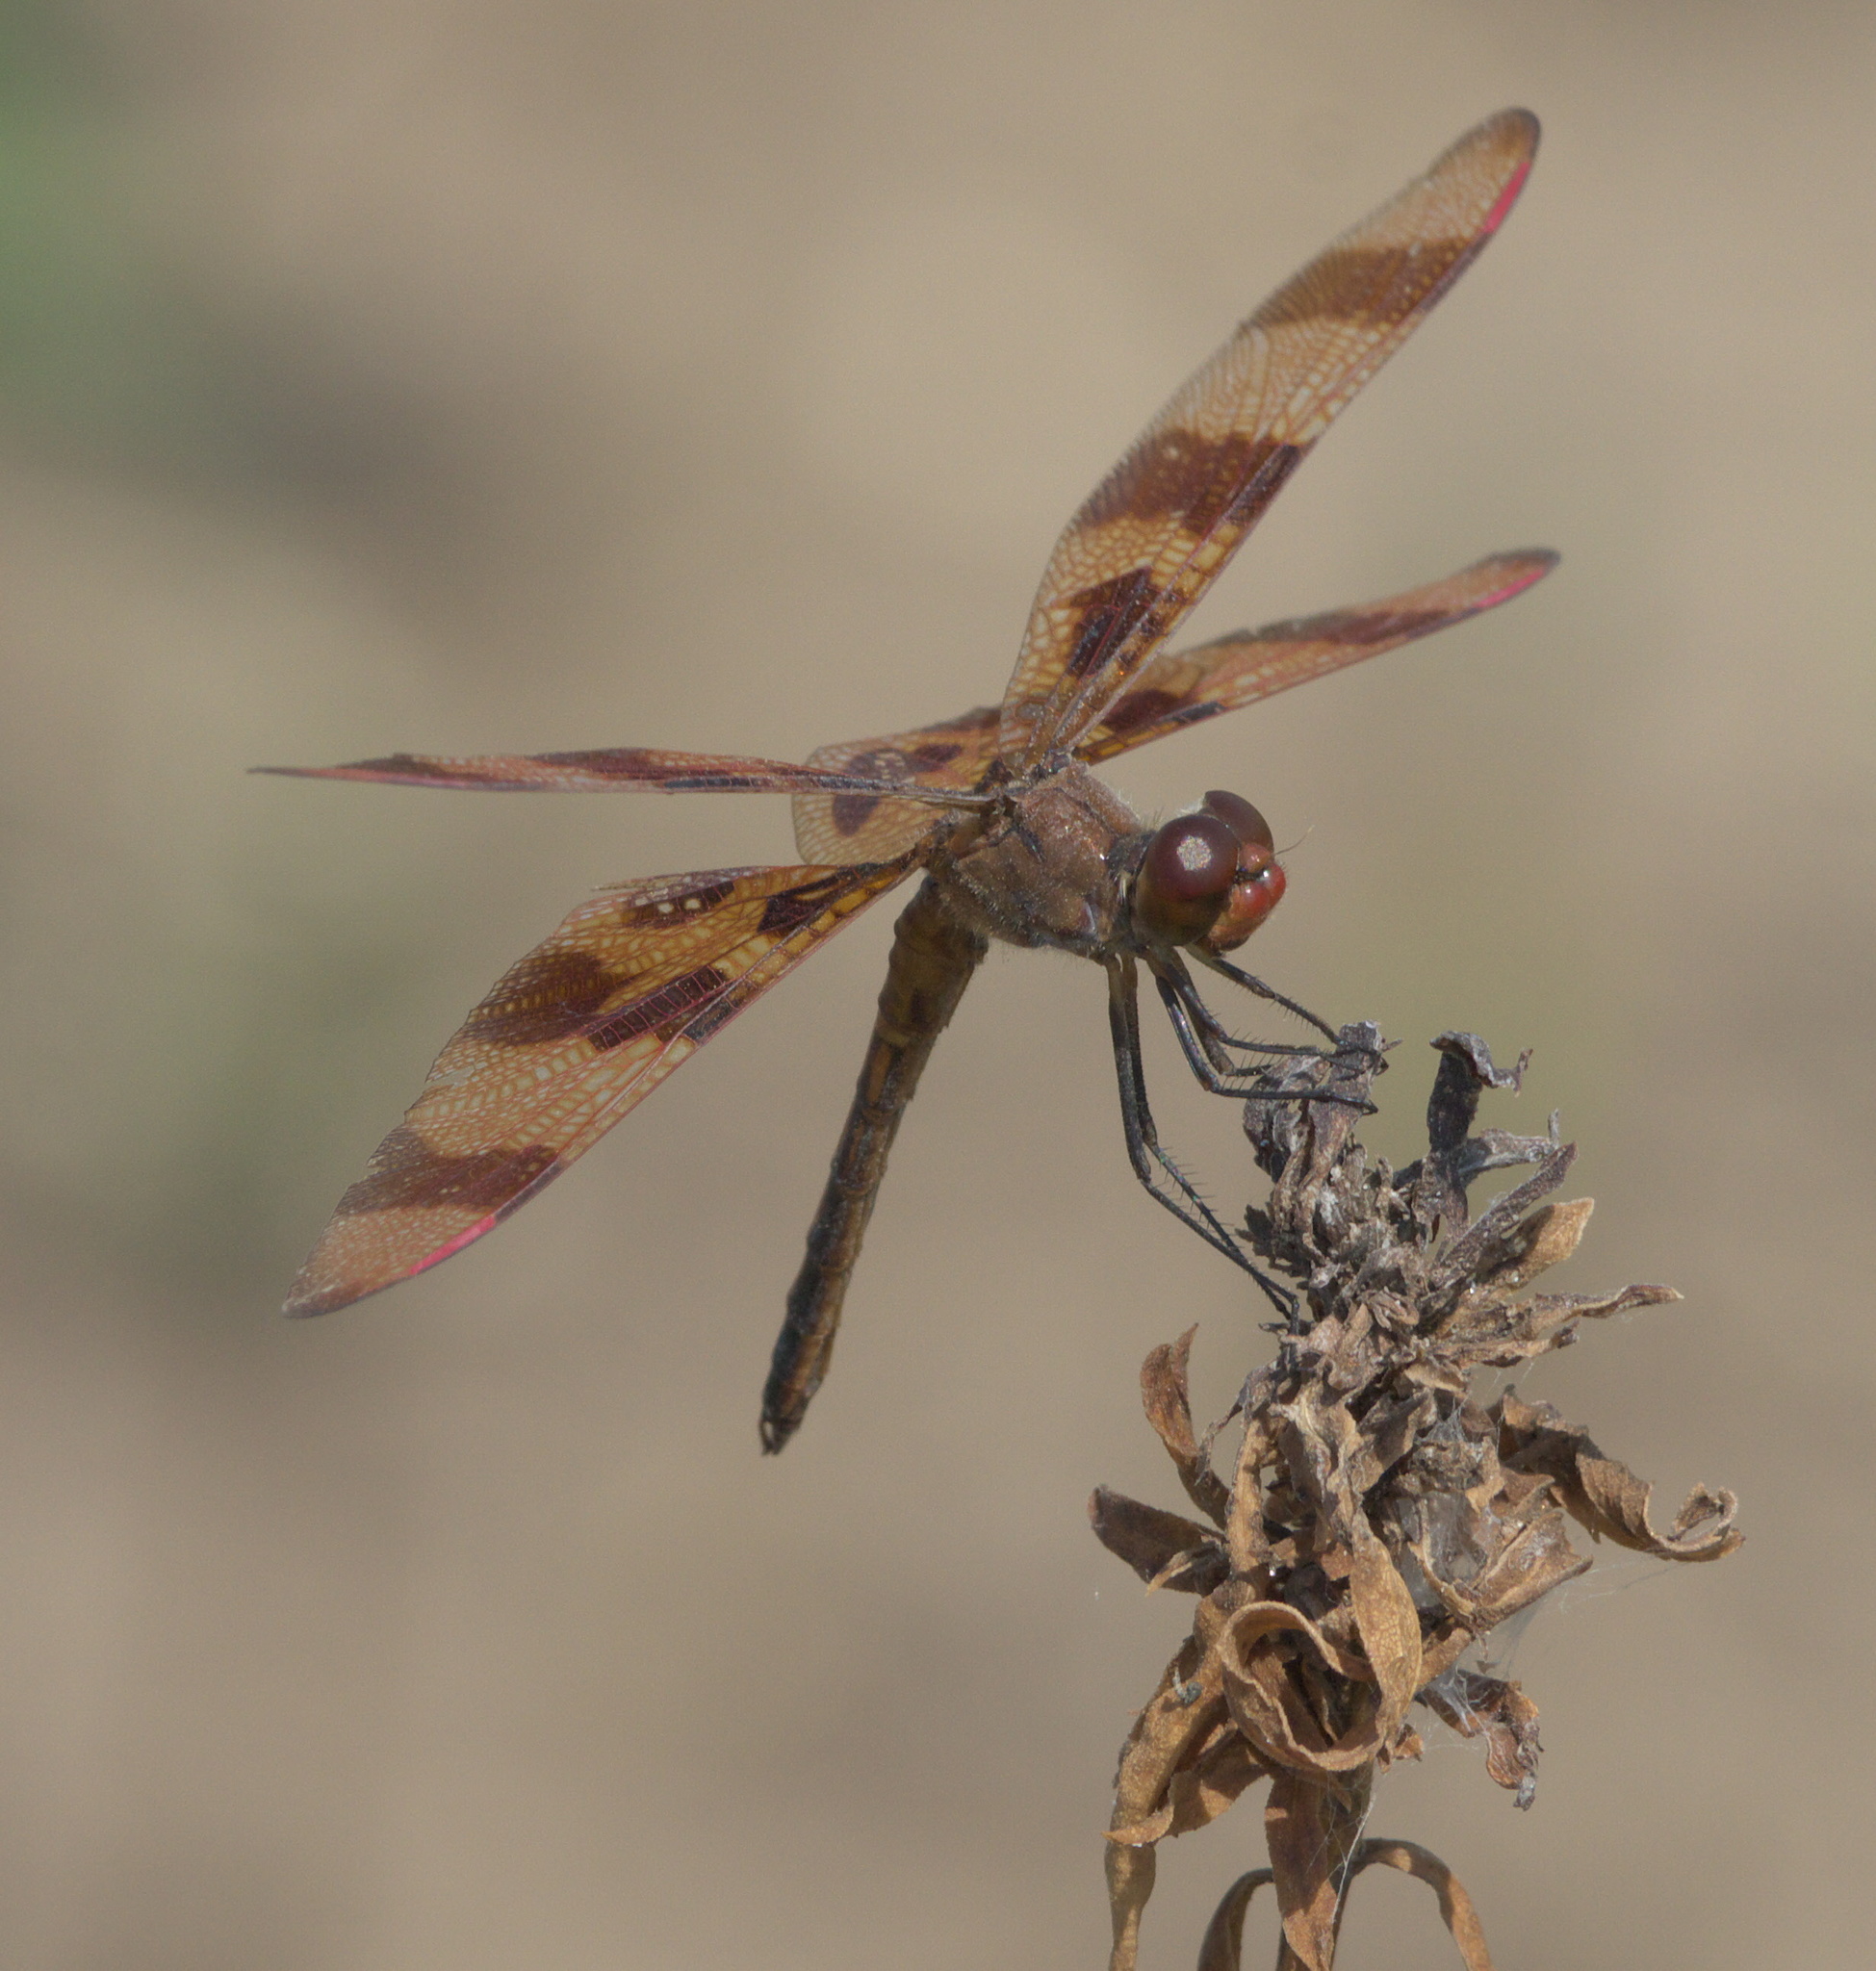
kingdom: Animalia
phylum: Arthropoda
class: Insecta
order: Odonata
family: Libellulidae
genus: Celithemis
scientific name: Celithemis eponina
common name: Halloween pennant
